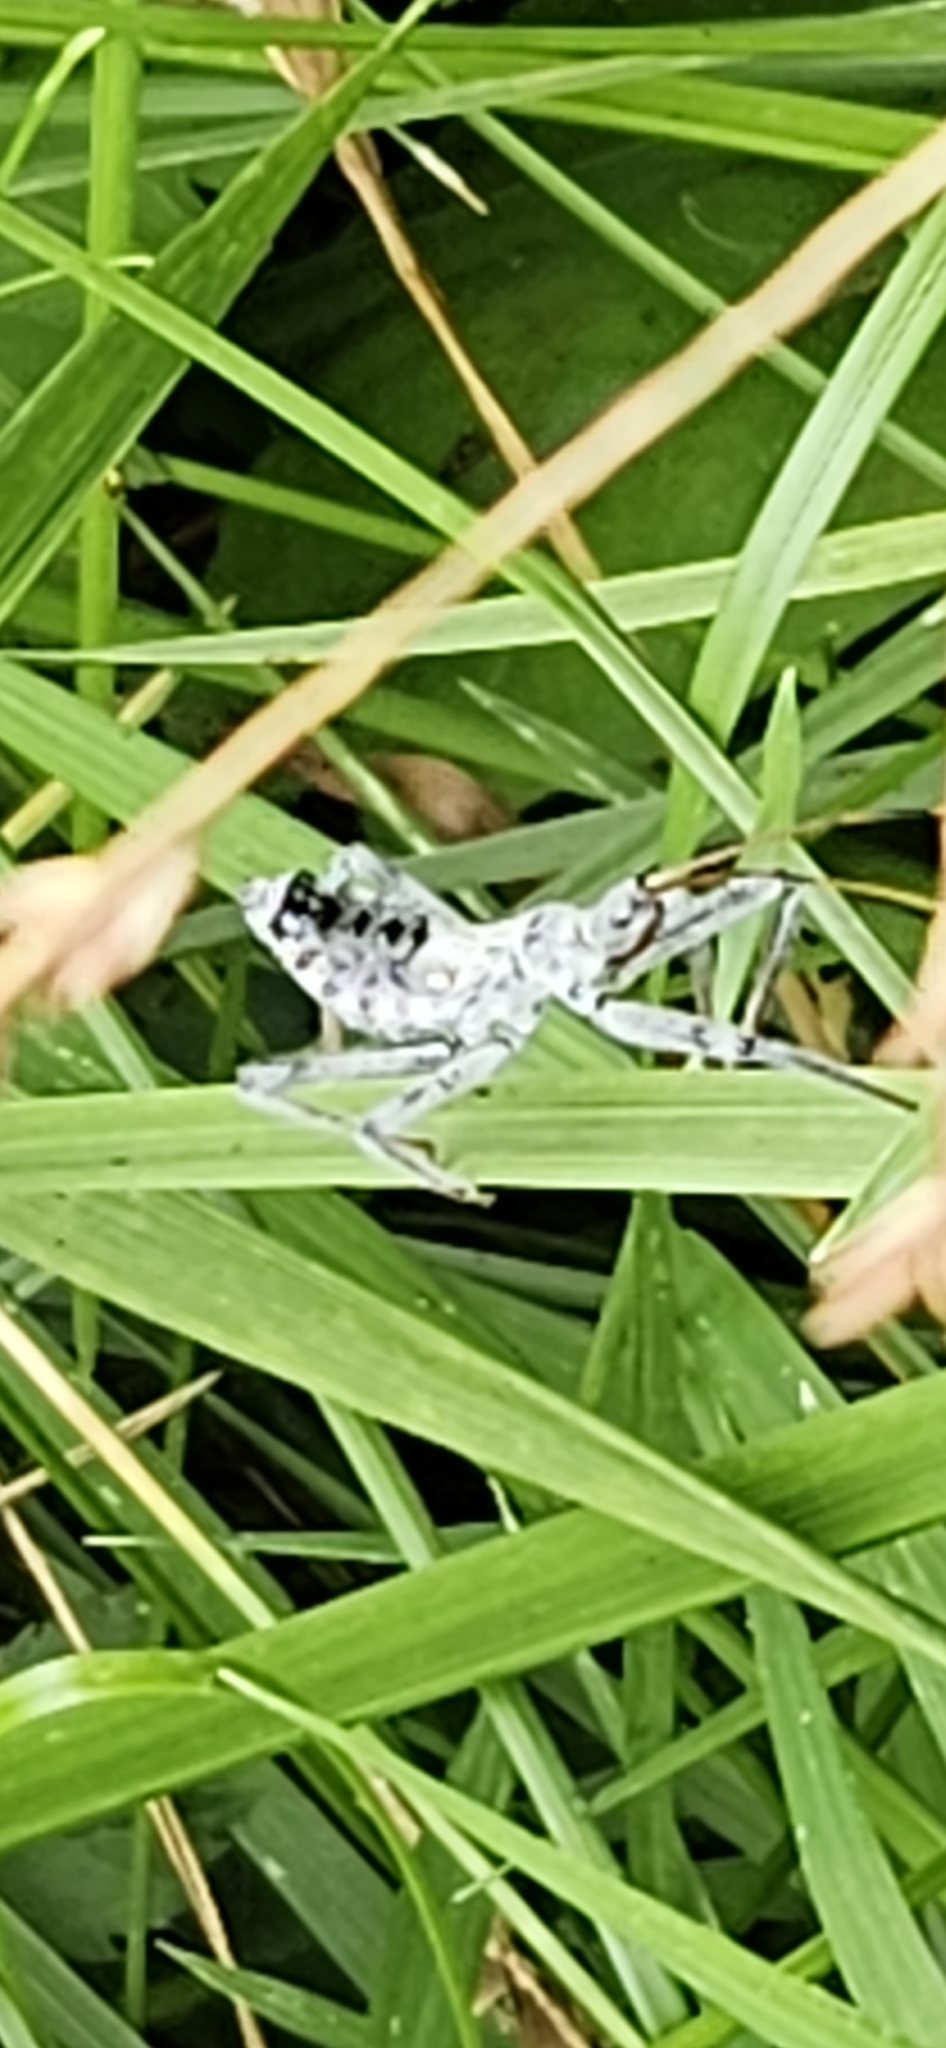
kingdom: Animalia
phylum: Arthropoda
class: Insecta
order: Hemiptera
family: Reduviidae
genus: Arilus
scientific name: Arilus cristatus
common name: North american wheel bug
